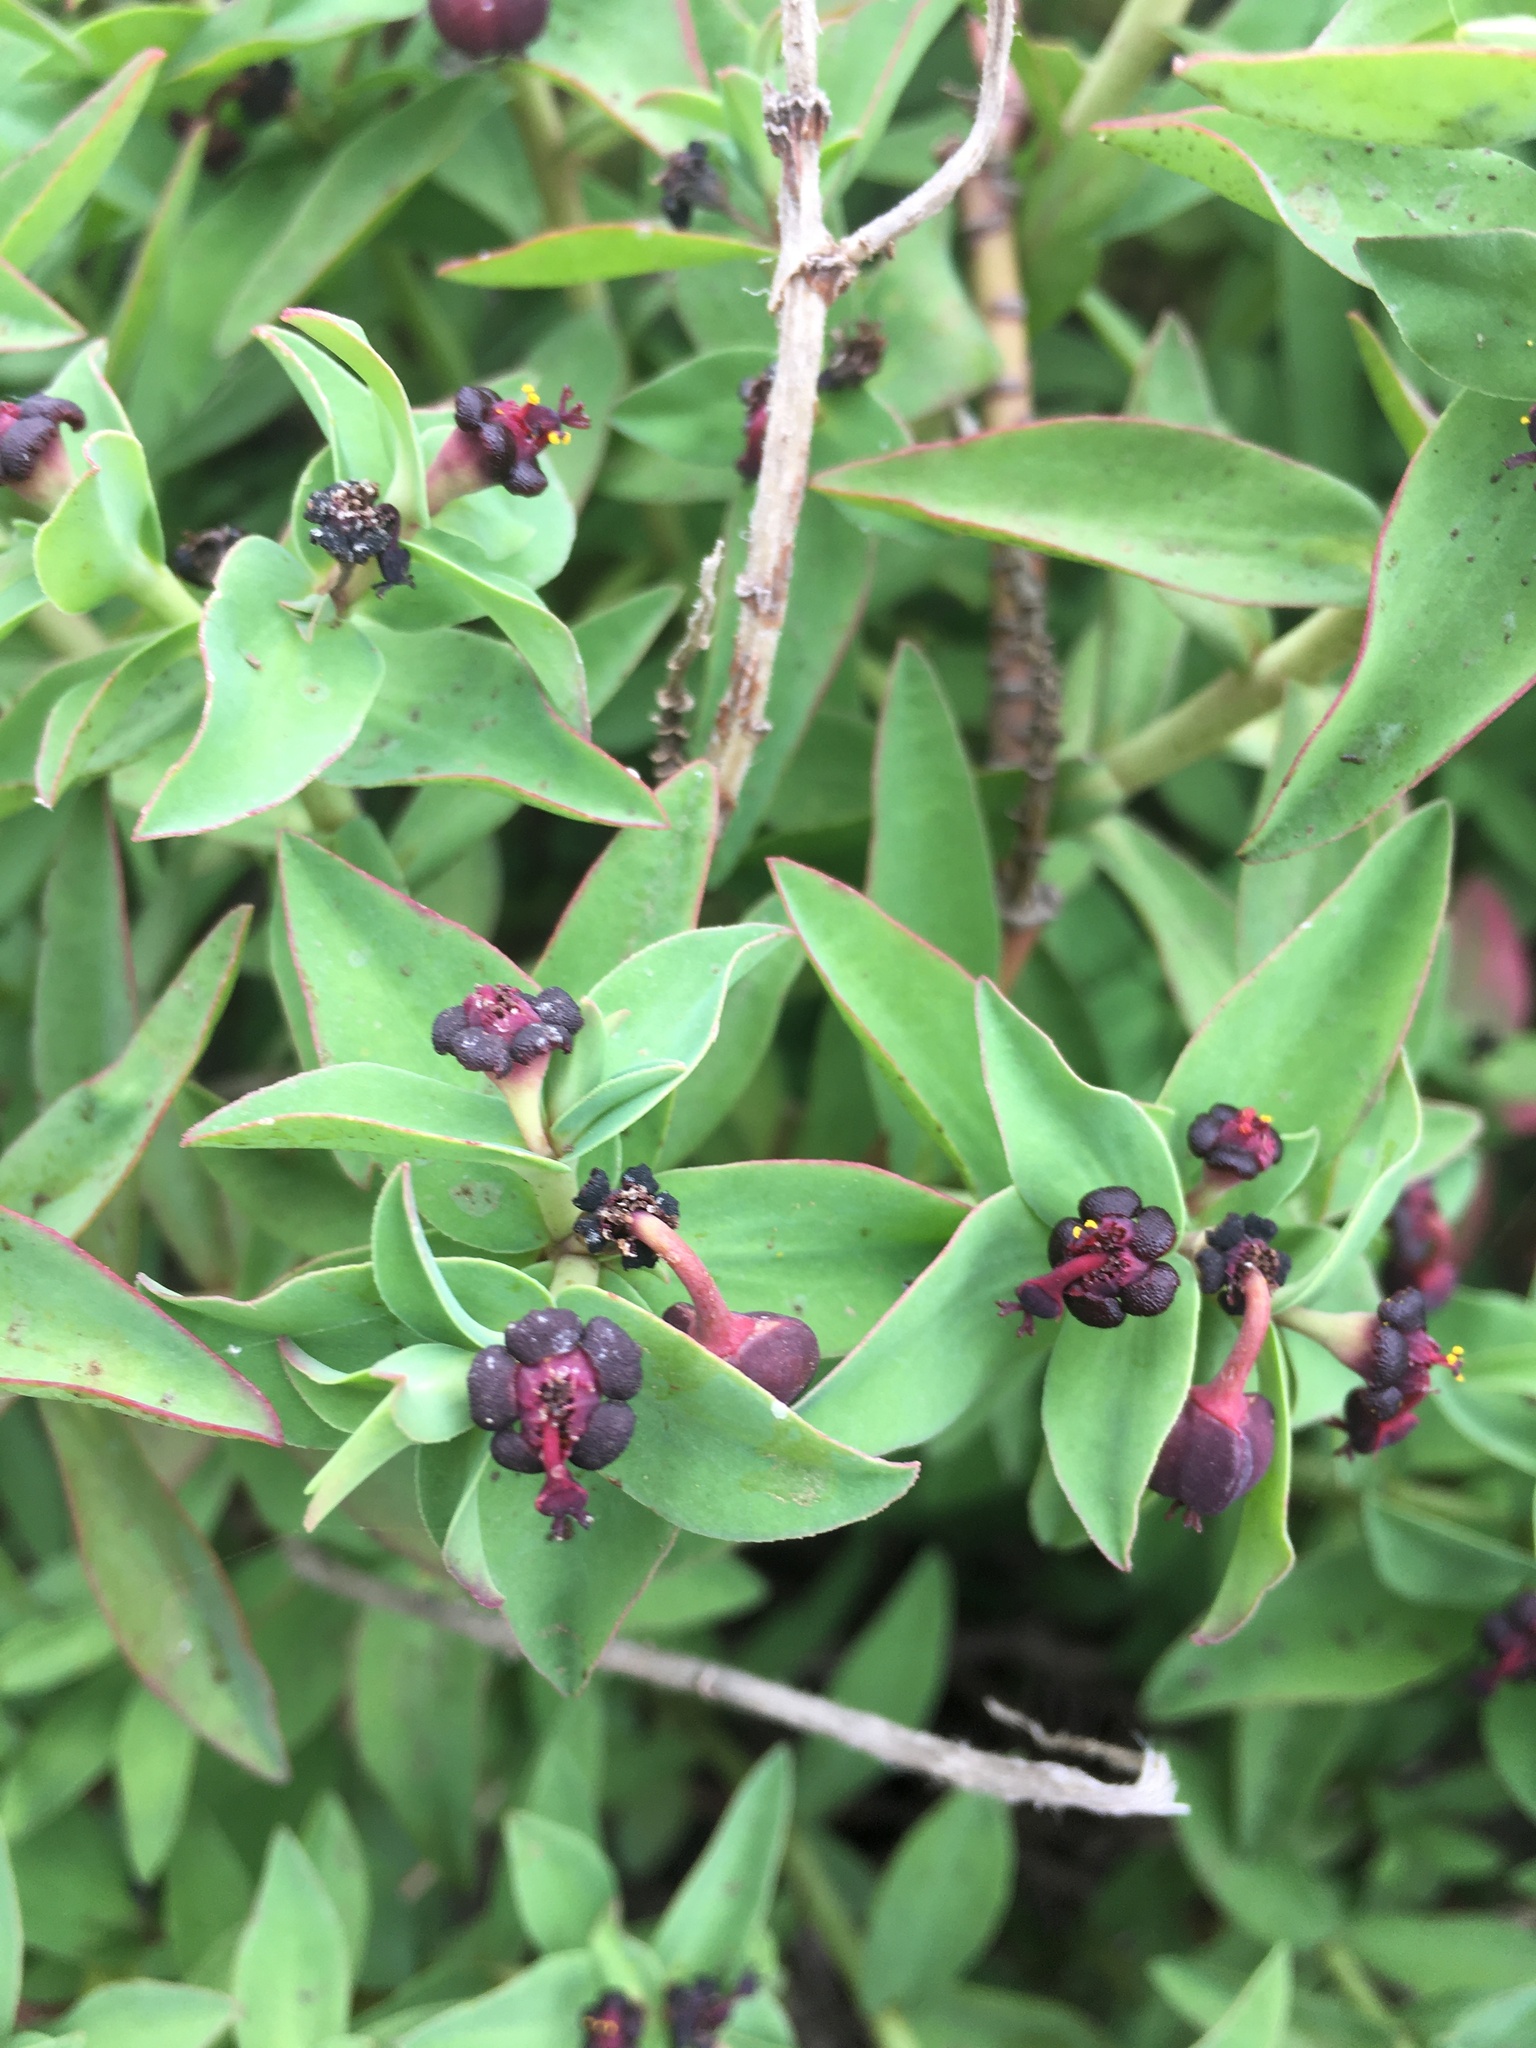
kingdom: Plantae
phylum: Tracheophyta
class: Magnoliopsida
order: Malpighiales
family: Euphorbiaceae
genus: Euphorbia
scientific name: Euphorbia portulacoides
